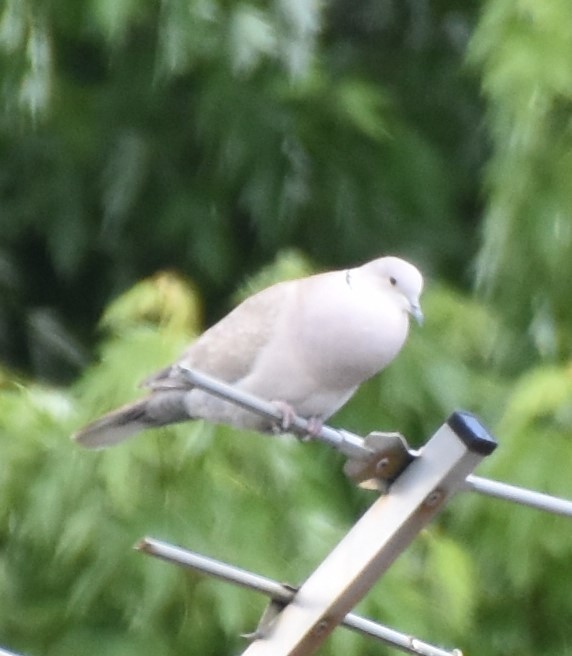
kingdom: Animalia
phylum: Chordata
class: Aves
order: Columbiformes
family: Columbidae
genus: Streptopelia
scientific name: Streptopelia decaocto
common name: Eurasian collared dove
